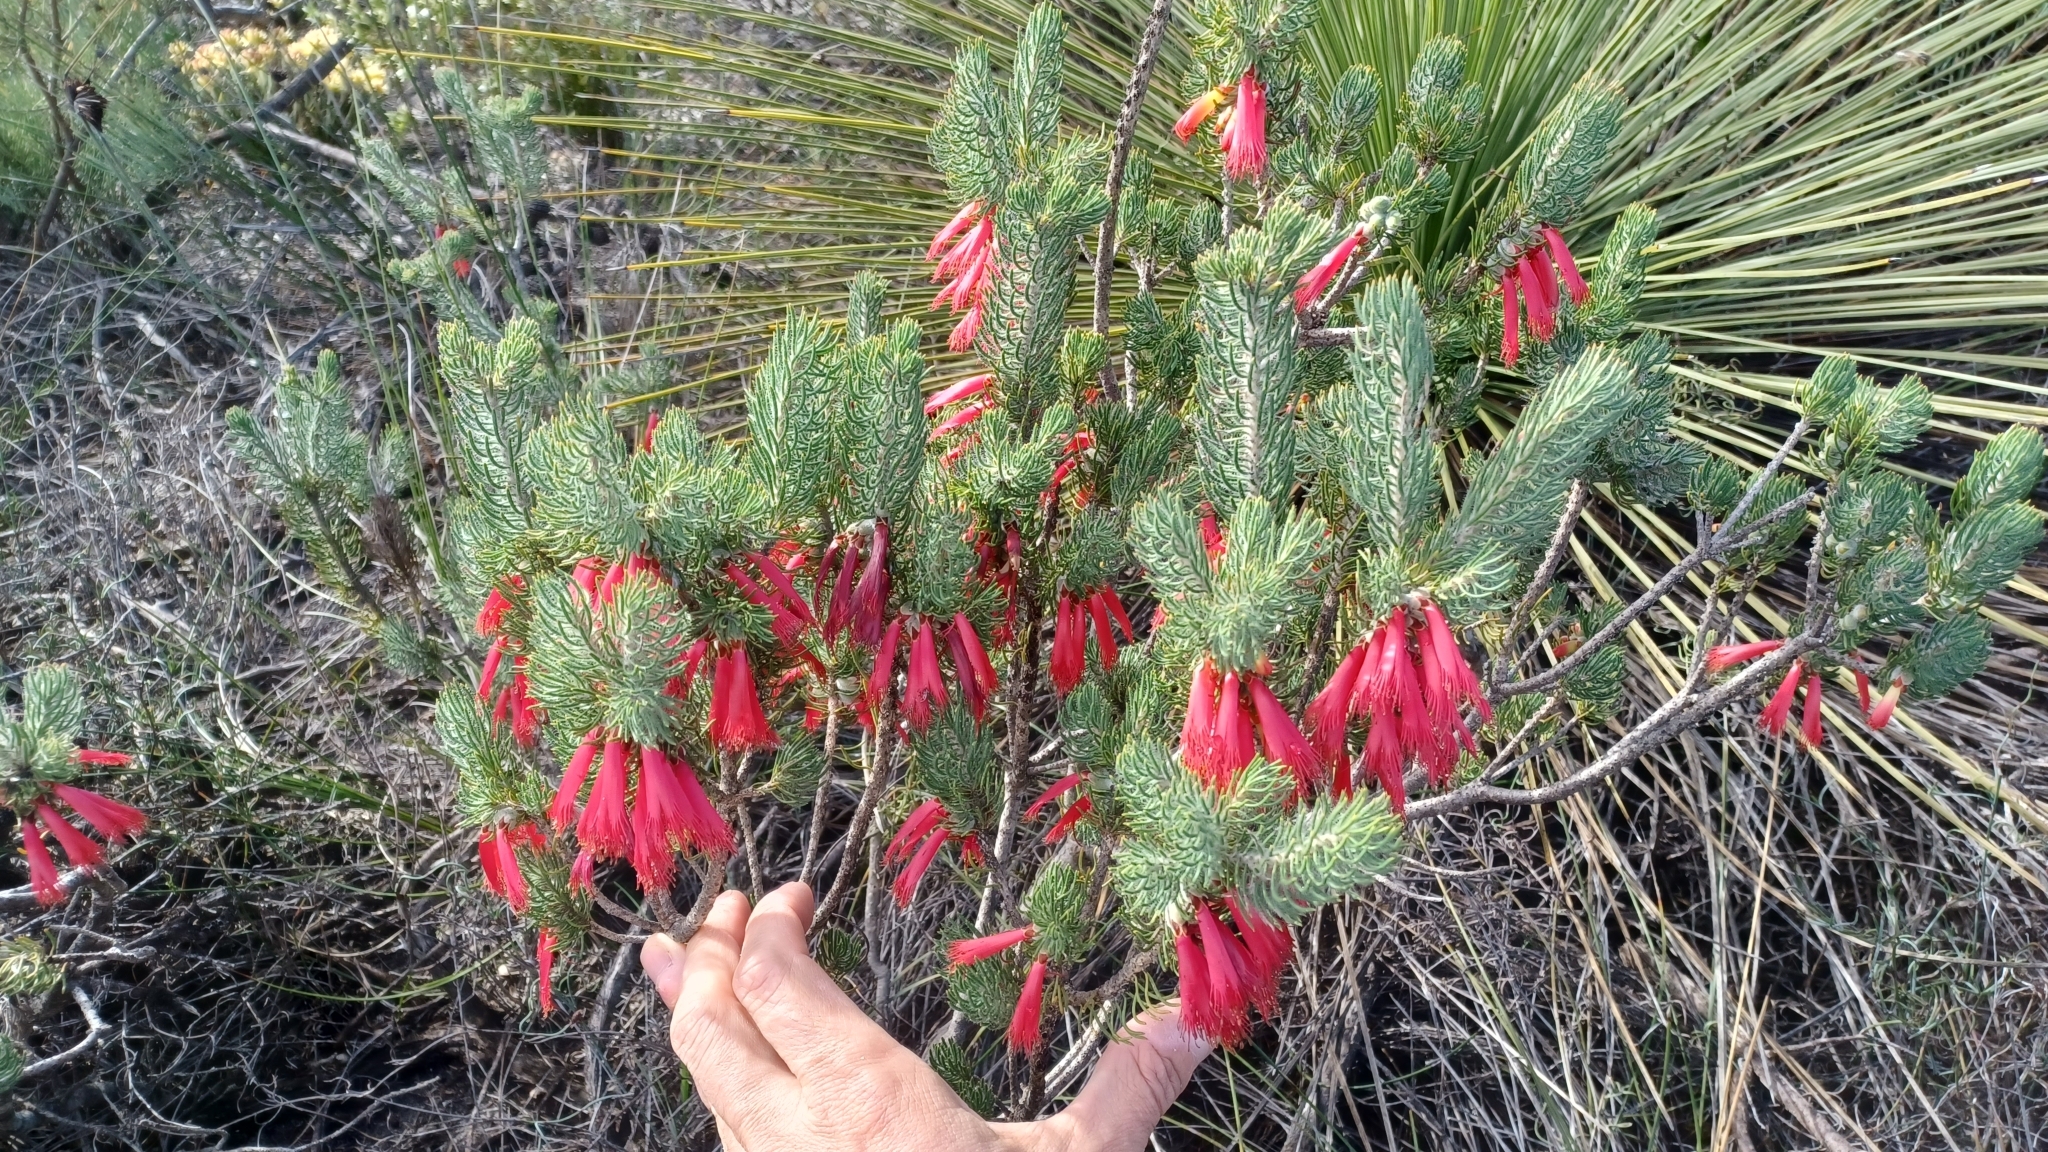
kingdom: Plantae
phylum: Tracheophyta
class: Magnoliopsida
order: Myrtales
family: Myrtaceae
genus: Melaleuca
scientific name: Melaleuca cruenta
